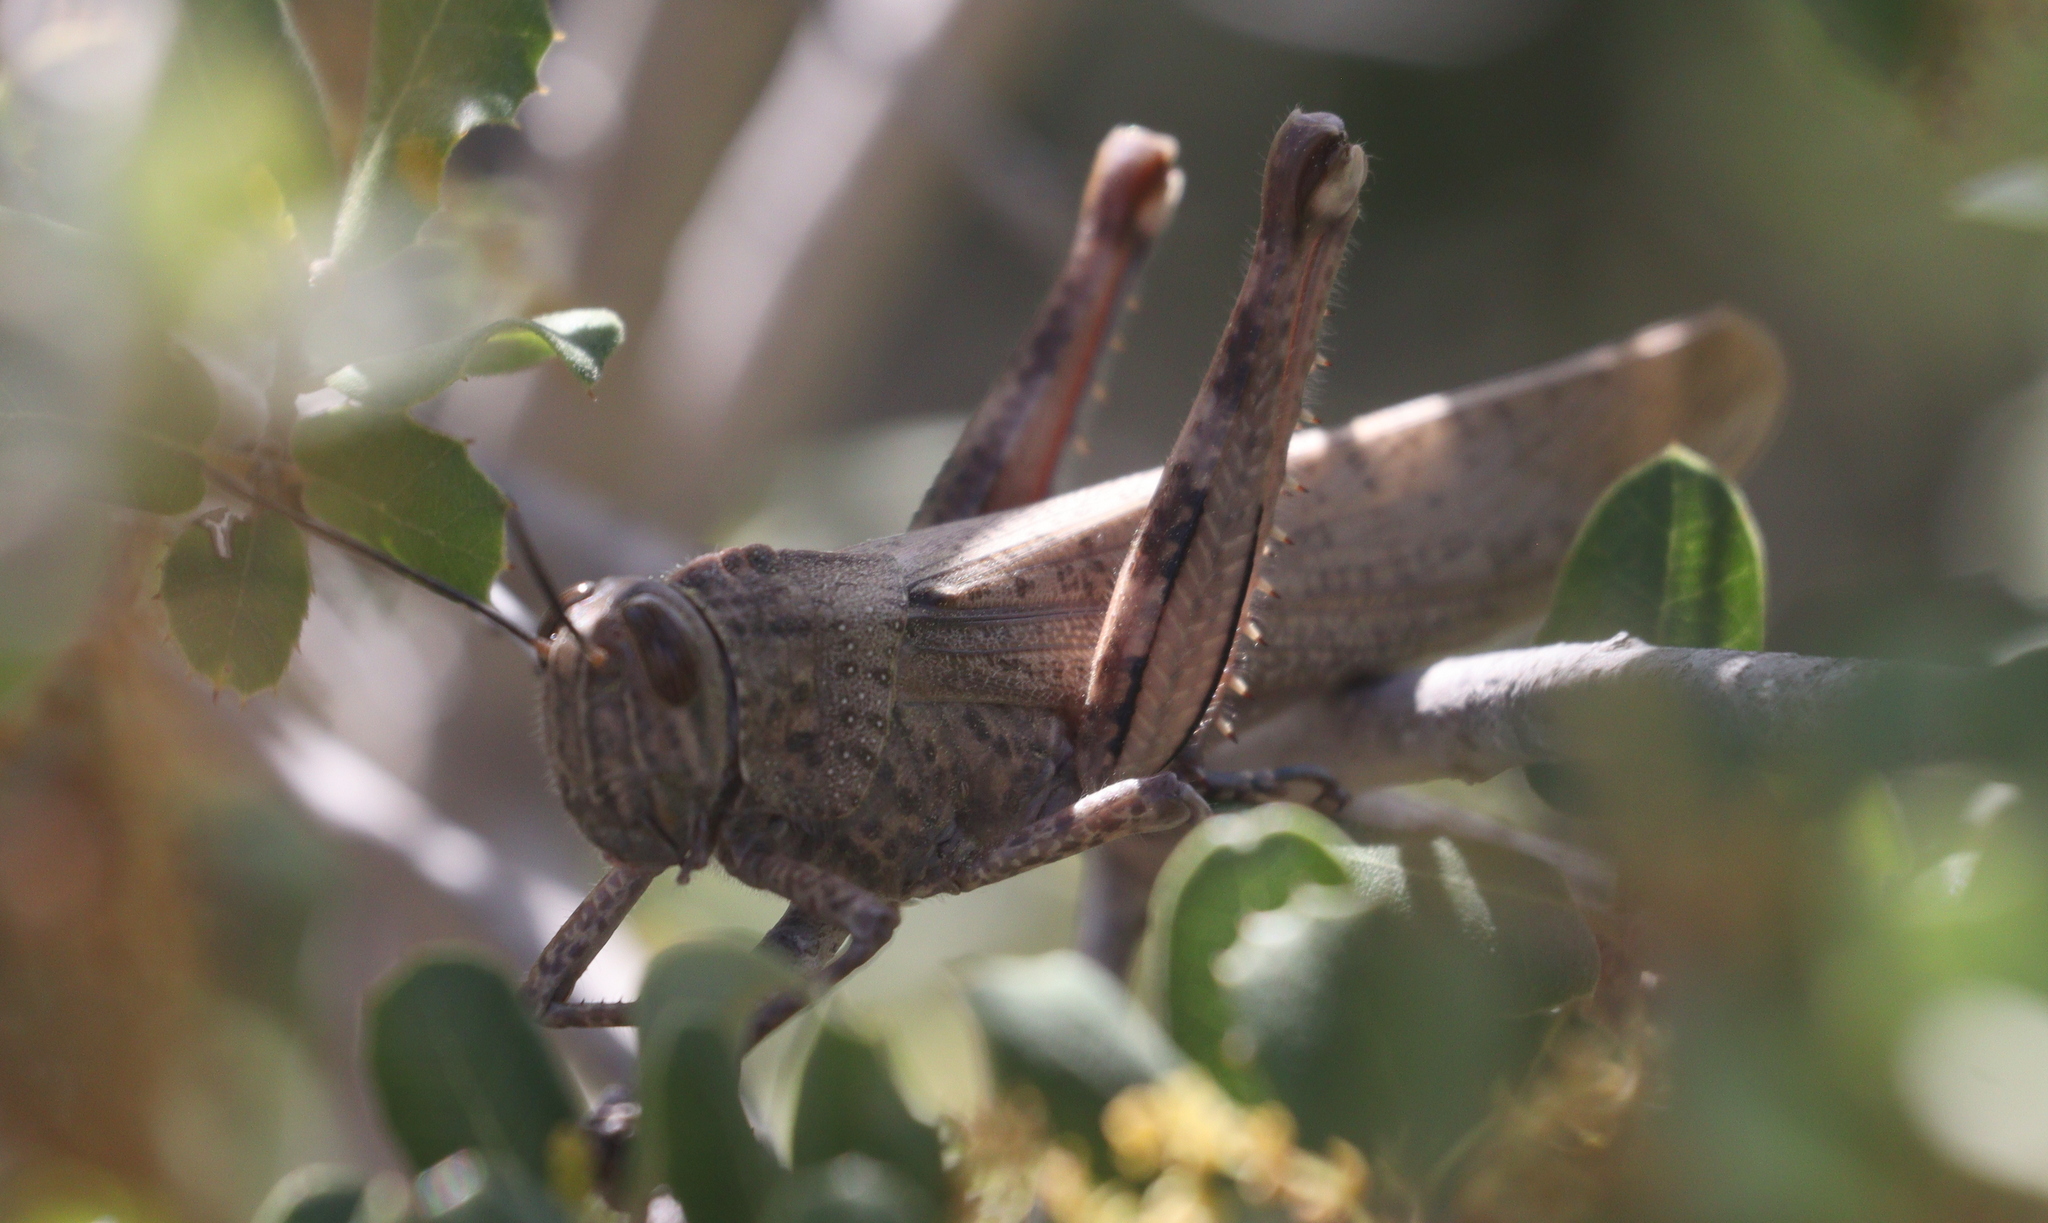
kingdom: Animalia
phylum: Arthropoda
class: Insecta
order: Orthoptera
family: Acrididae
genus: Anacridium
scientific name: Anacridium aegyptium
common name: Egyptian grasshopper
